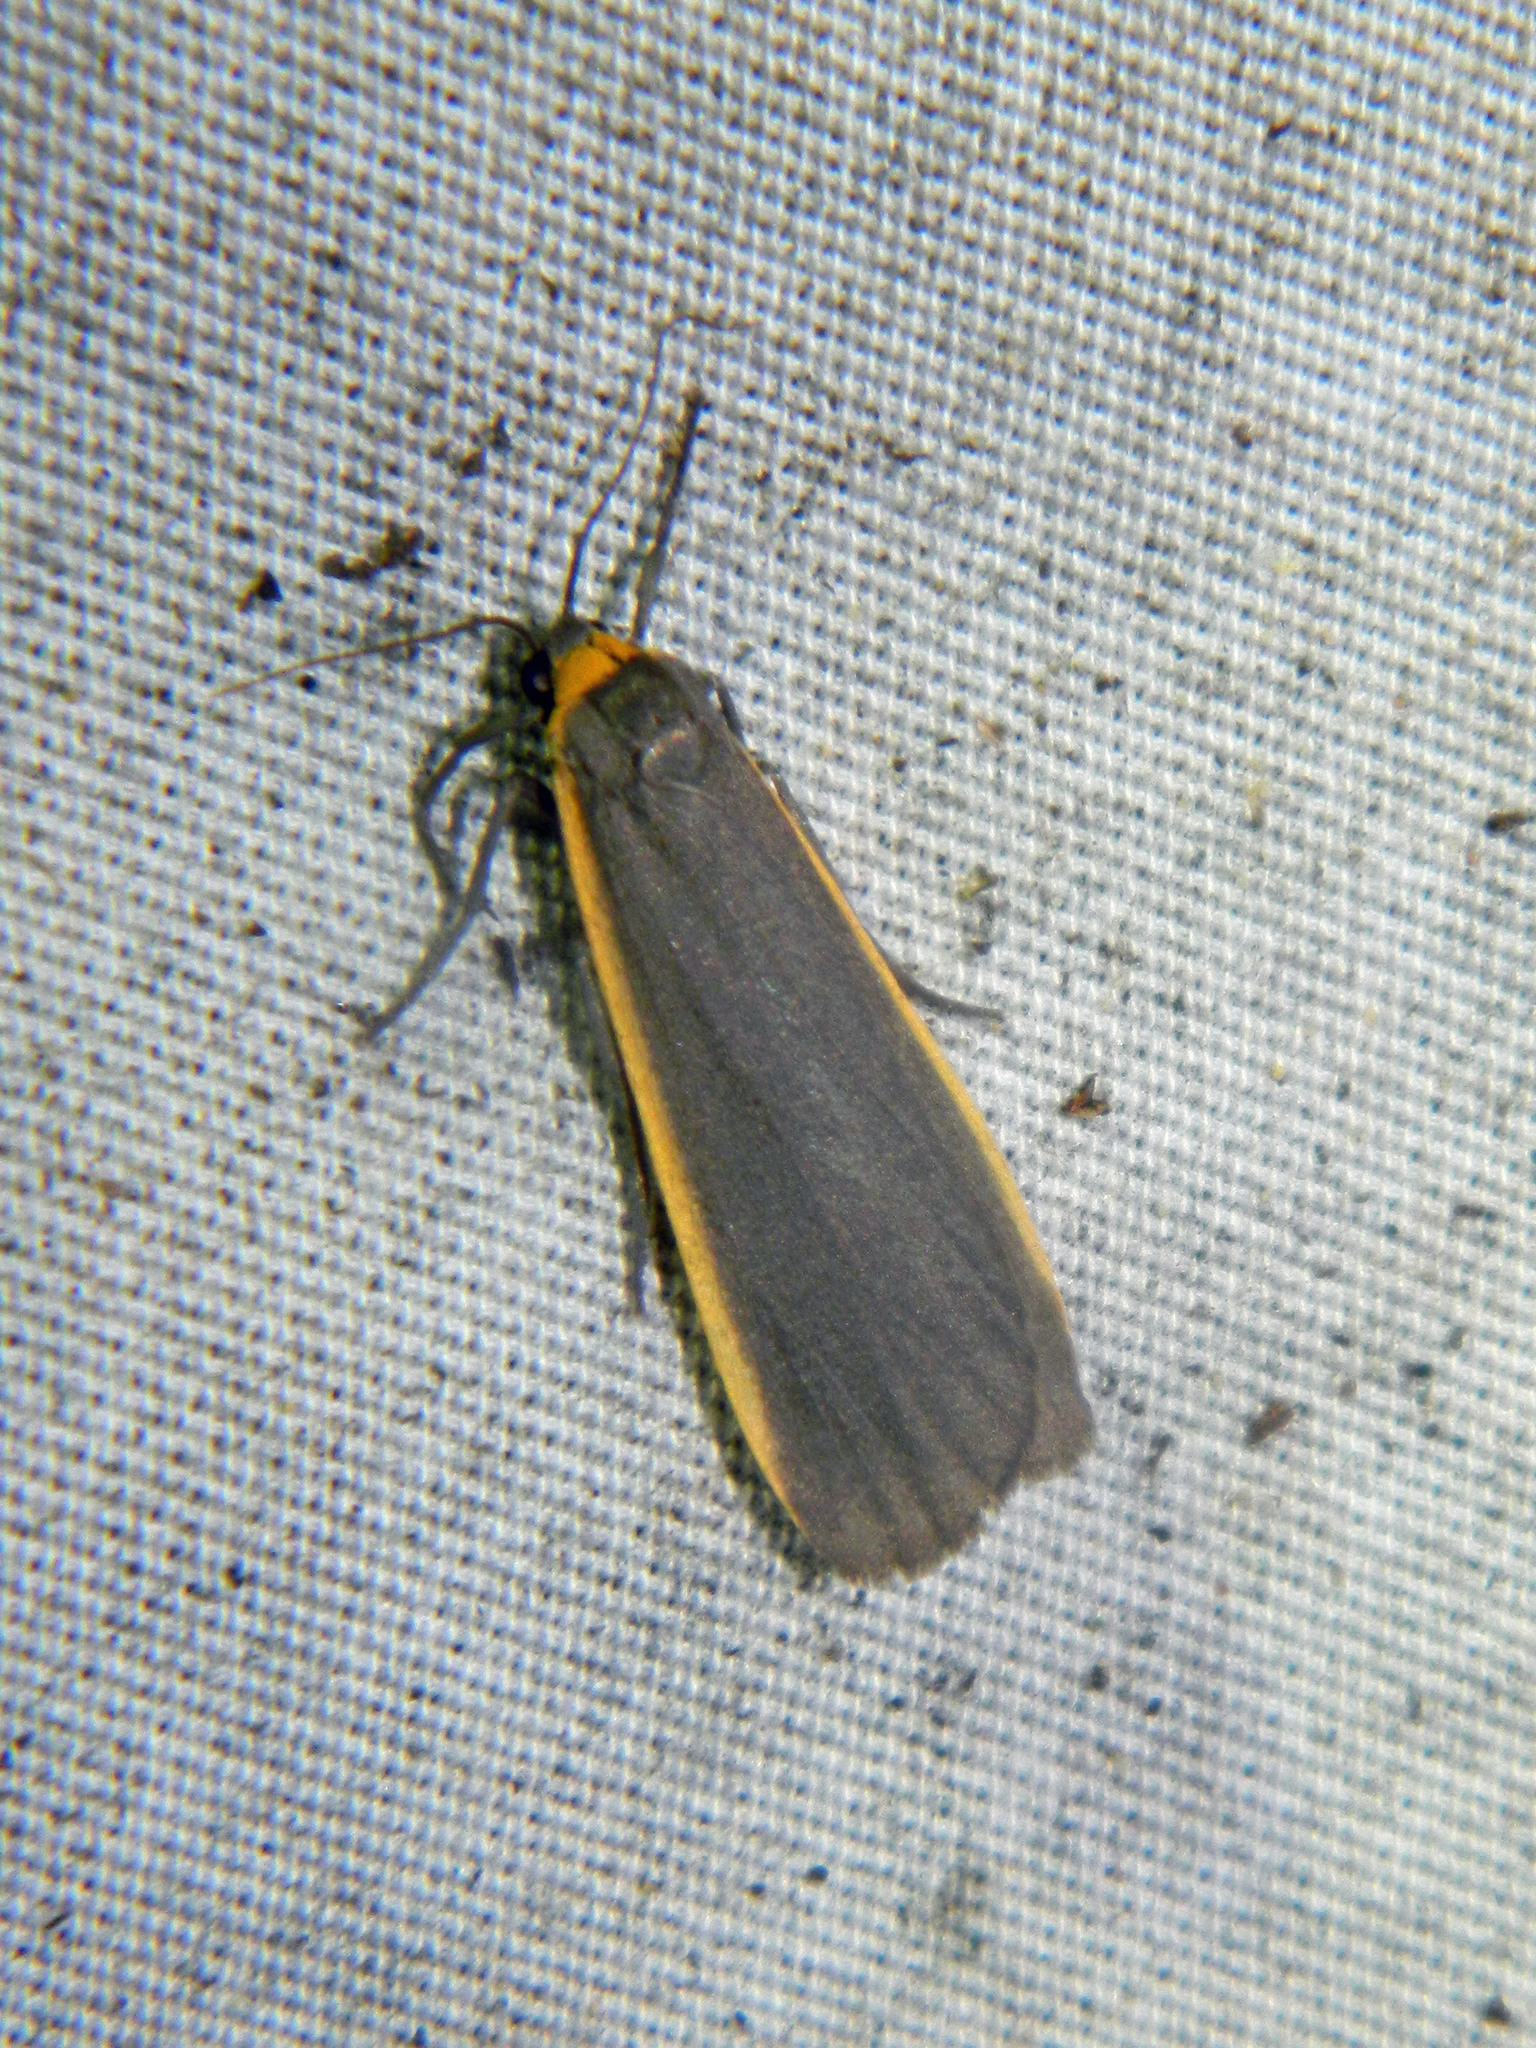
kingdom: Animalia
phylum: Arthropoda
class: Insecta
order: Lepidoptera
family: Erebidae
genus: Manulea
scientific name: Manulea bicolor
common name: Bicolored moth
